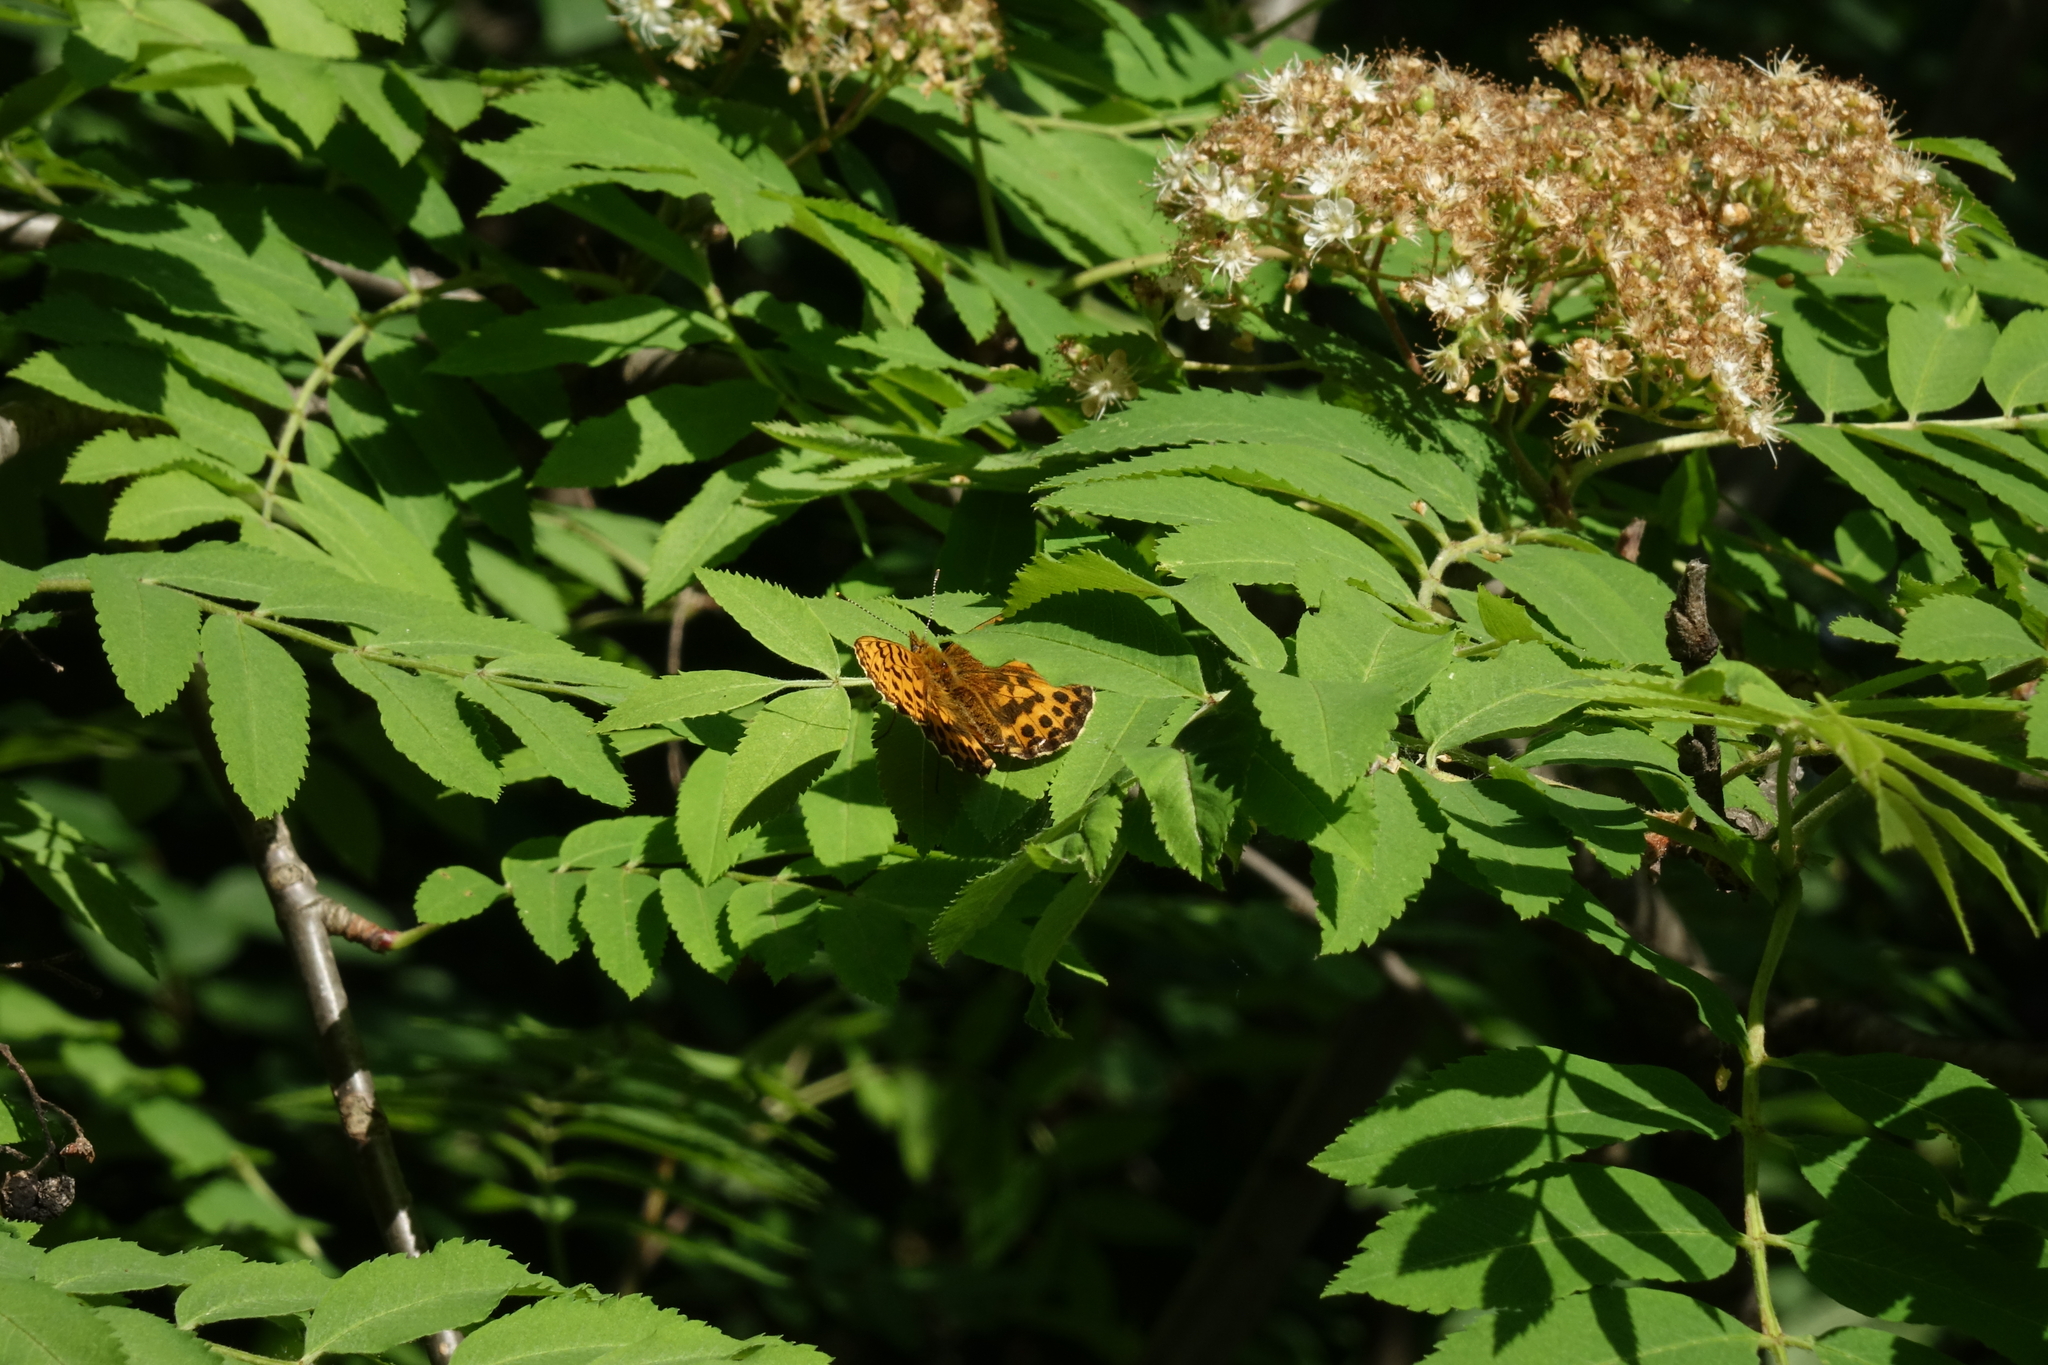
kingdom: Plantae
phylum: Tracheophyta
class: Magnoliopsida
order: Rosales
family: Rosaceae
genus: Sorbus
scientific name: Sorbus aucuparia
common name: Rowan
